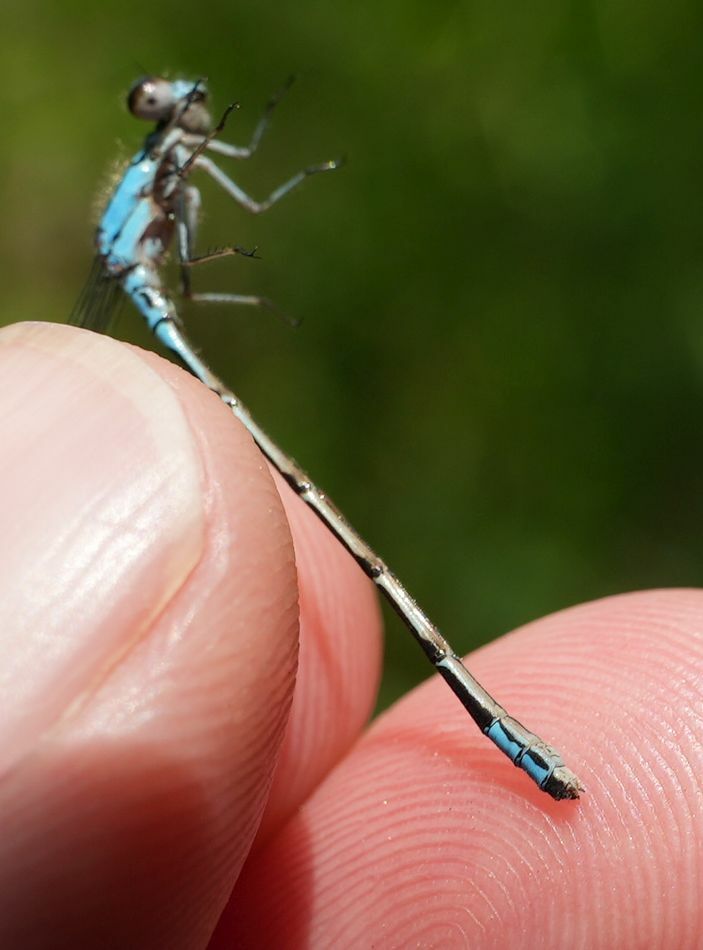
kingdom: Animalia
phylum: Arthropoda
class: Insecta
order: Odonata
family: Coenagrionidae
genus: Enallagma
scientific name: Enallagma geminatum
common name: Skimming bluet
